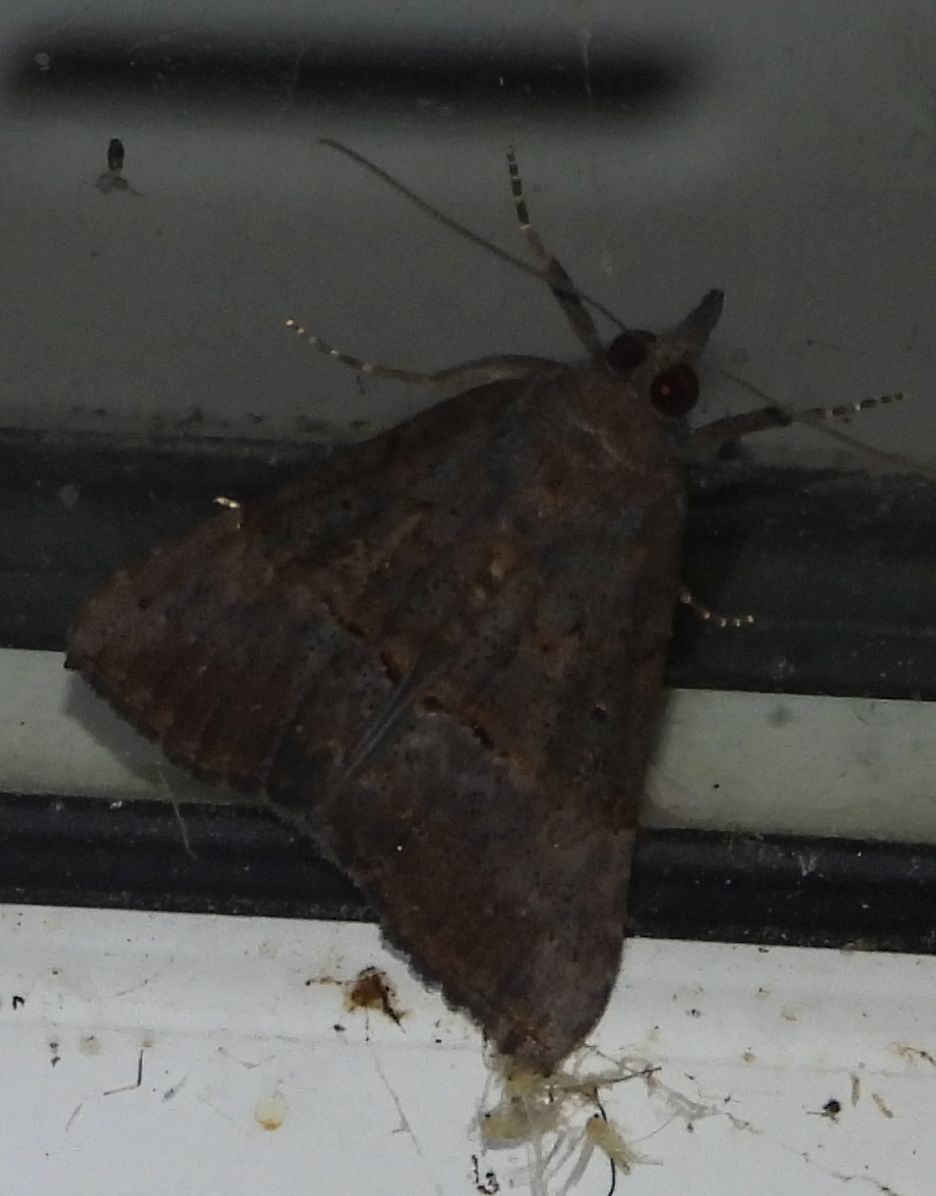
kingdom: Animalia
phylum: Arthropoda
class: Insecta
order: Lepidoptera
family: Erebidae
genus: Hypena
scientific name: Hypena scabra
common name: Green cloverworm
